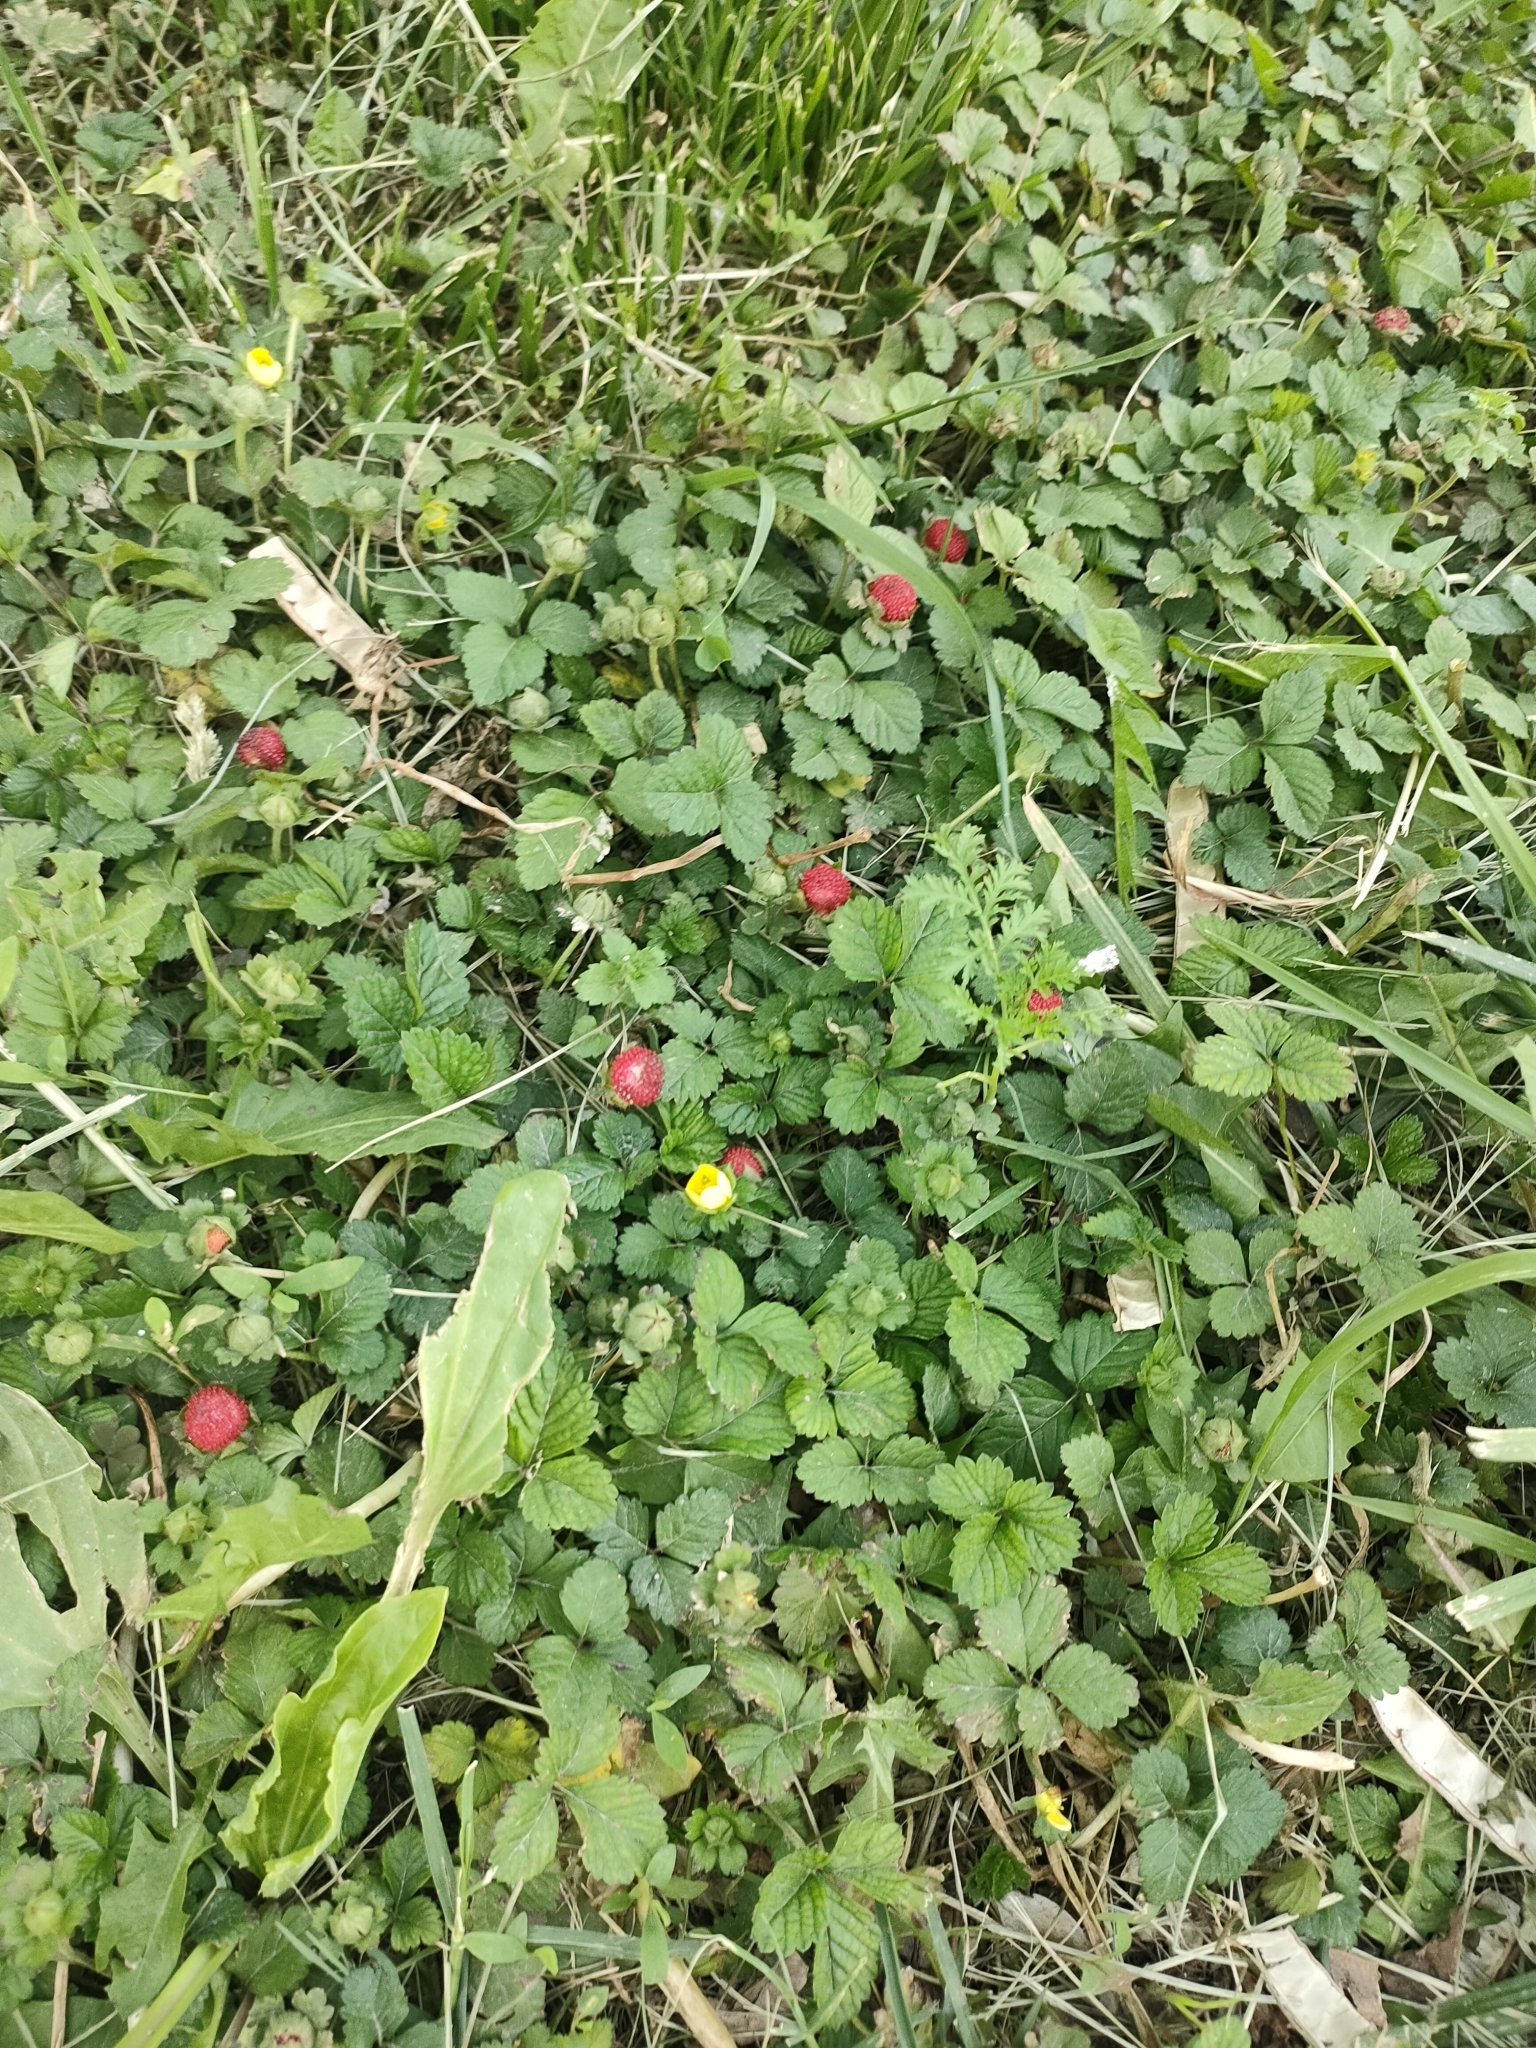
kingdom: Plantae
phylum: Tracheophyta
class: Magnoliopsida
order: Rosales
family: Rosaceae
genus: Potentilla
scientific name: Potentilla indica
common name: Yellow-flowered strawberry
